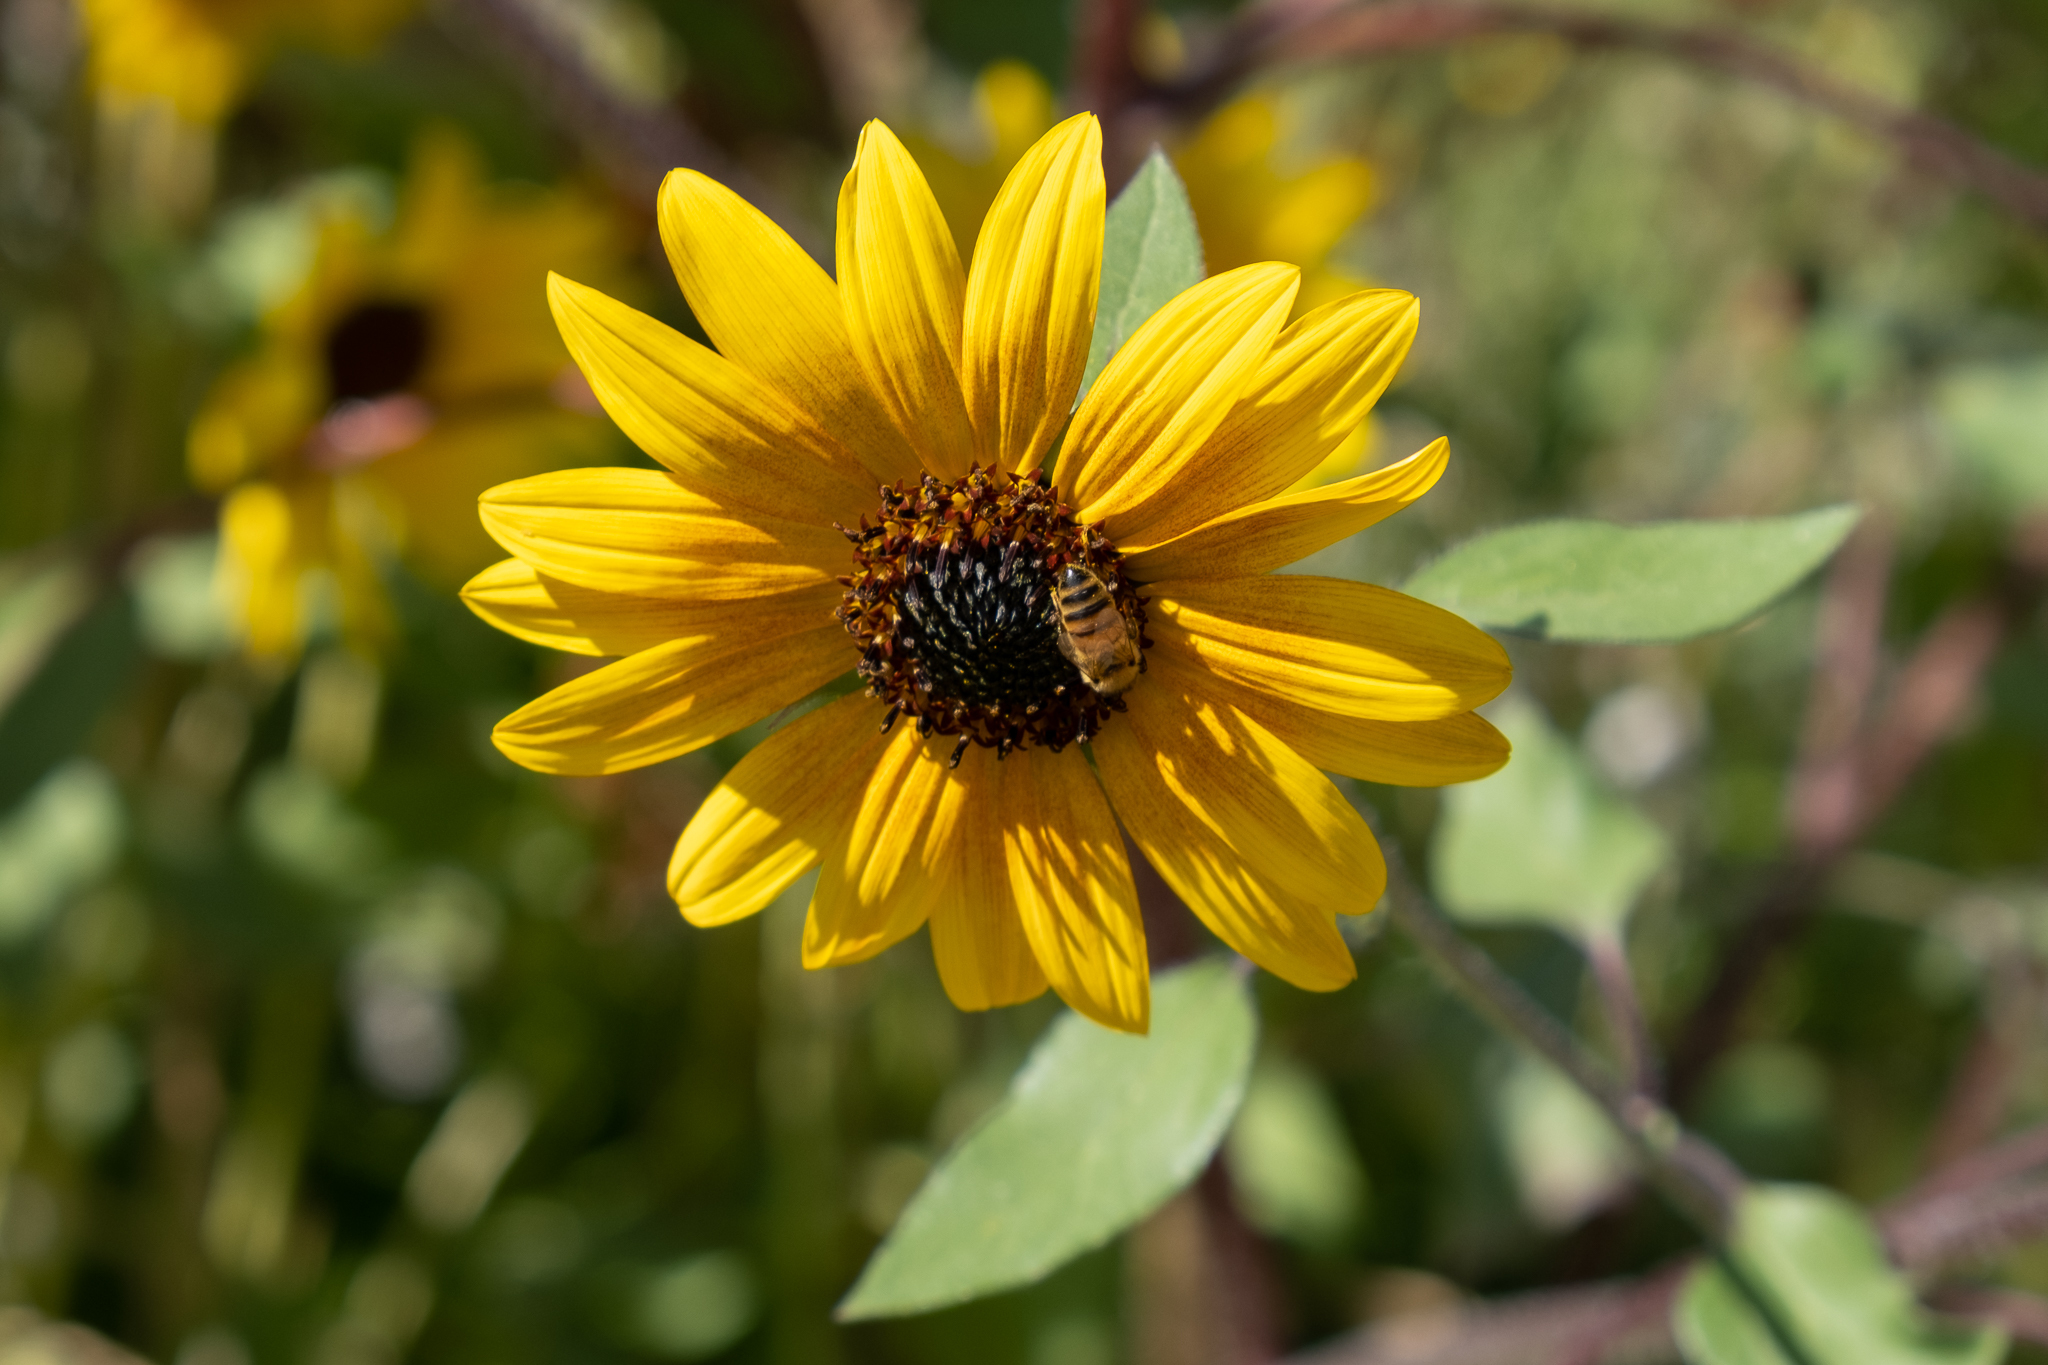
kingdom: Animalia
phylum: Arthropoda
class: Insecta
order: Hymenoptera
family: Apidae
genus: Apis
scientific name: Apis mellifera
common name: Honey bee
